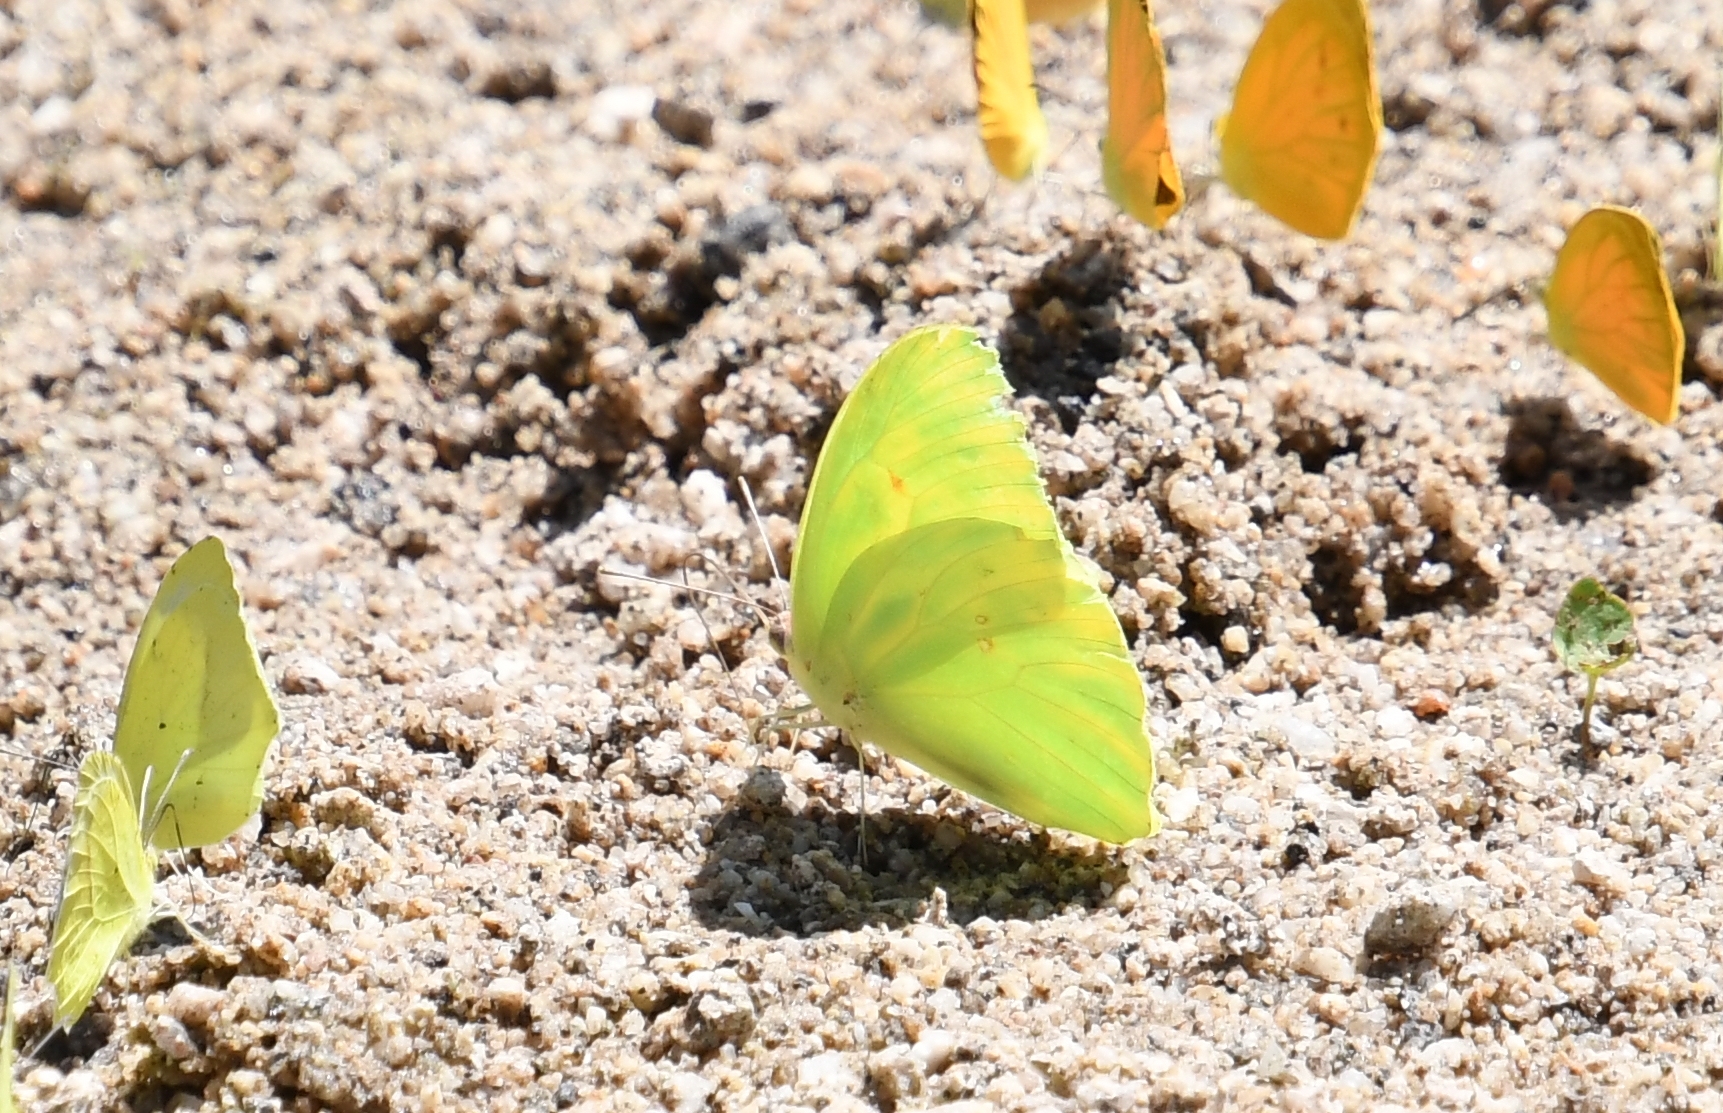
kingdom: Animalia
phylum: Arthropoda
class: Insecta
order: Lepidoptera
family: Pieridae
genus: Phoebis
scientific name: Phoebis sennae
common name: Cloudless sulphur
